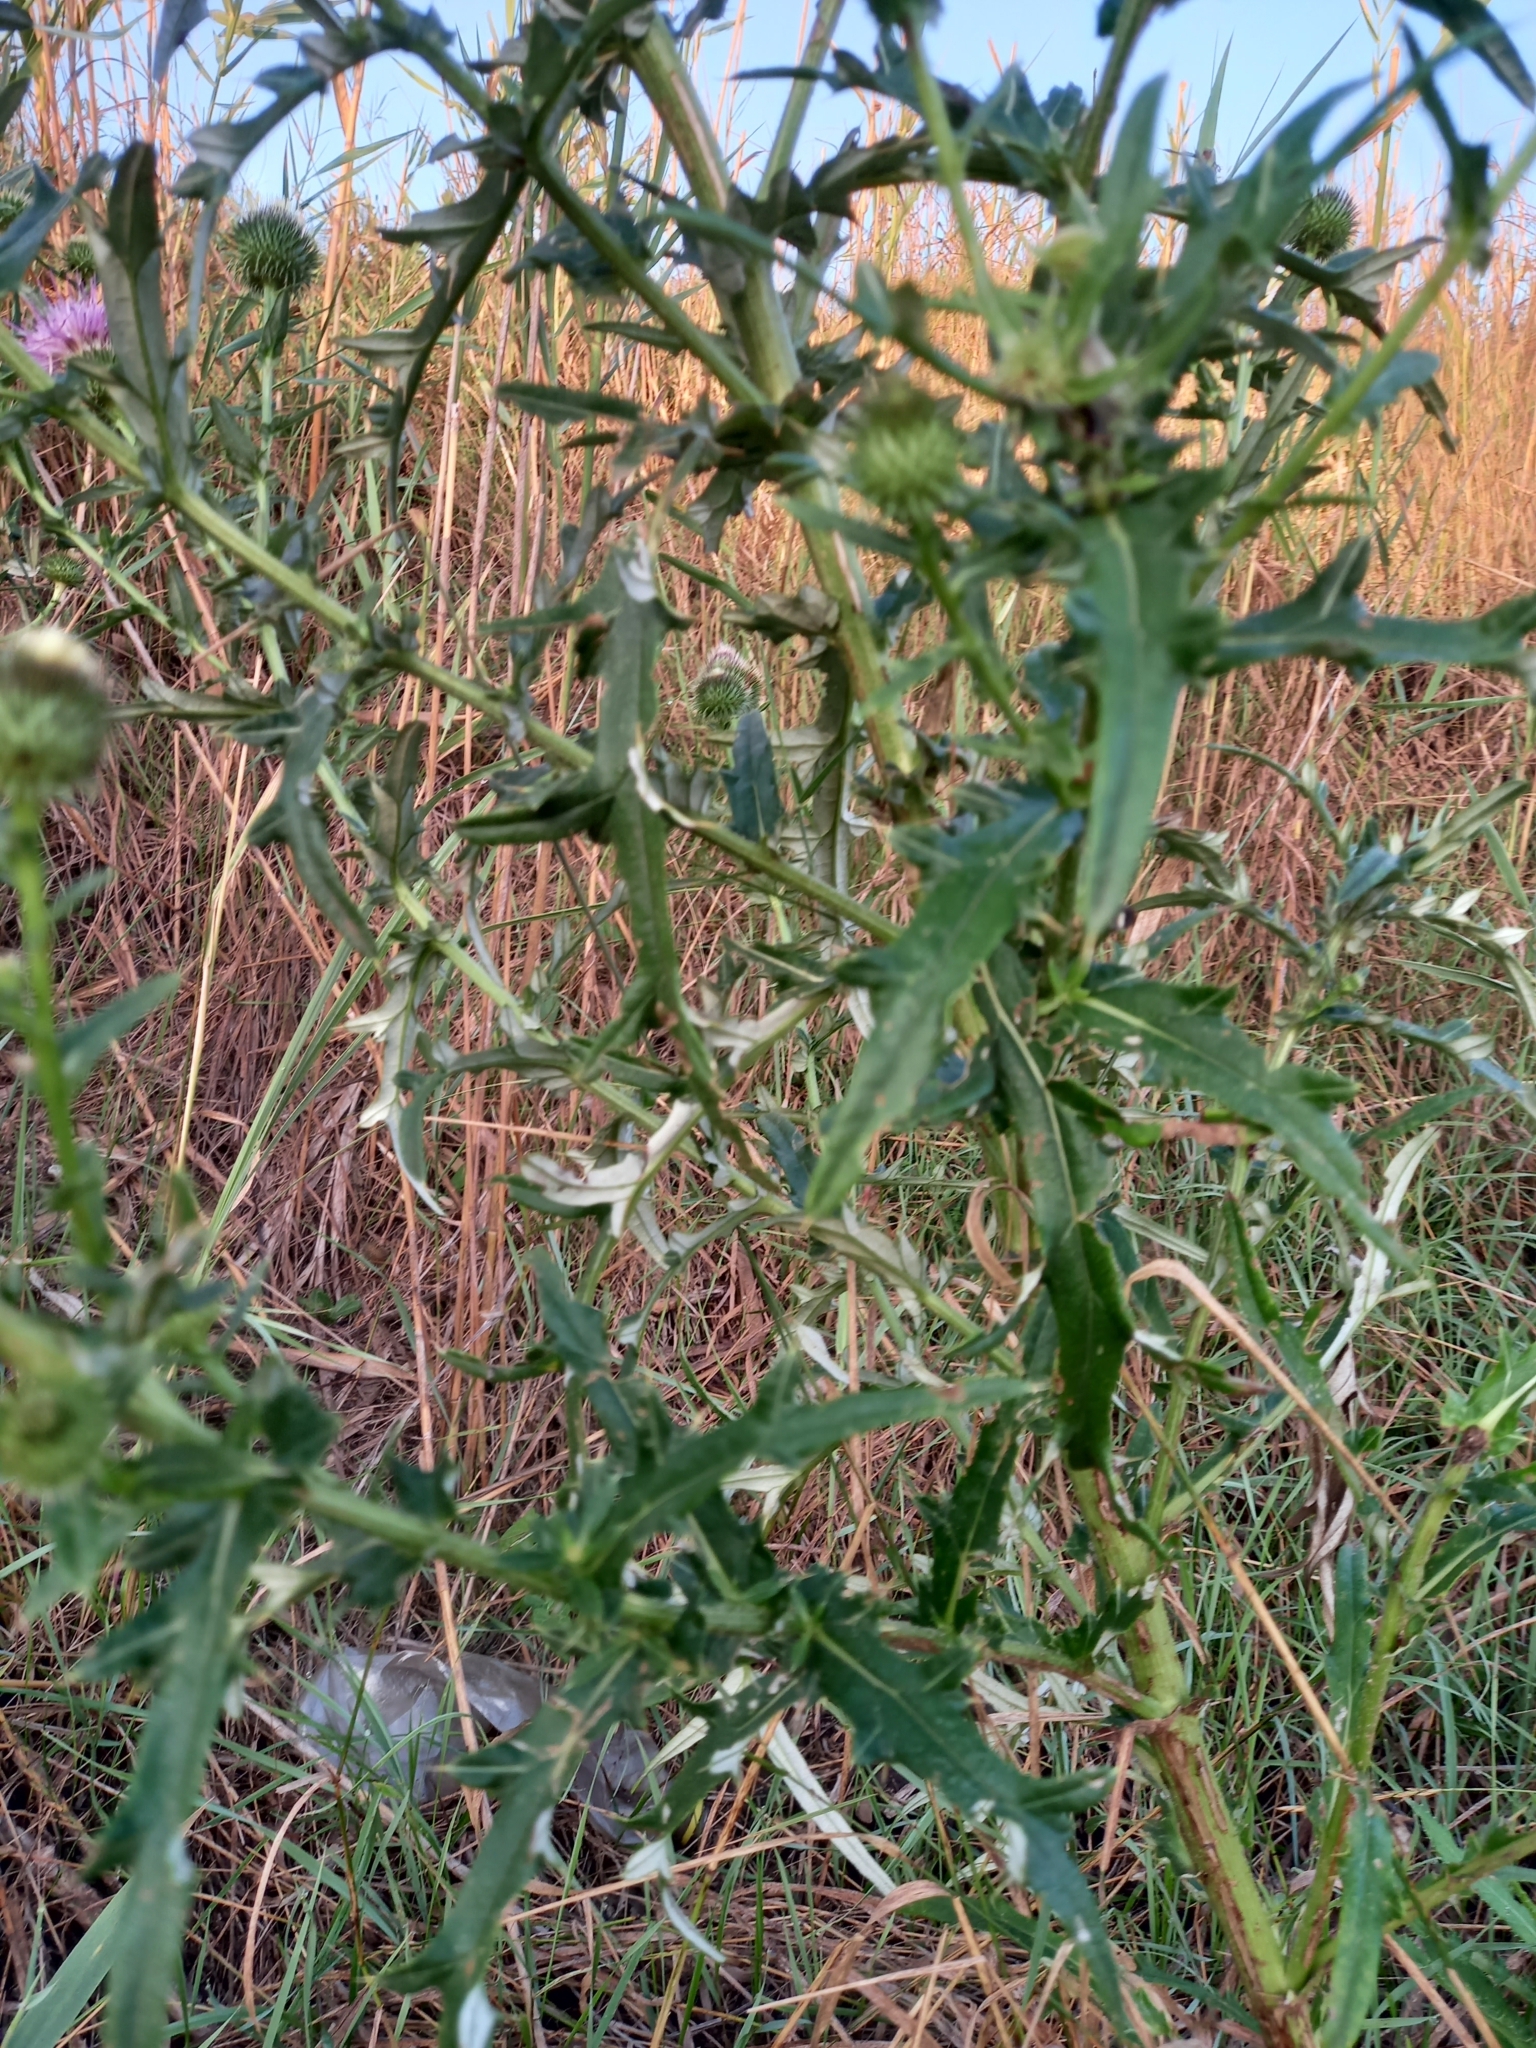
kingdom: Plantae
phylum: Tracheophyta
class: Magnoliopsida
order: Asterales
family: Asteraceae
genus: Lophiolepis
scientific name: Lophiolepis ciliata
